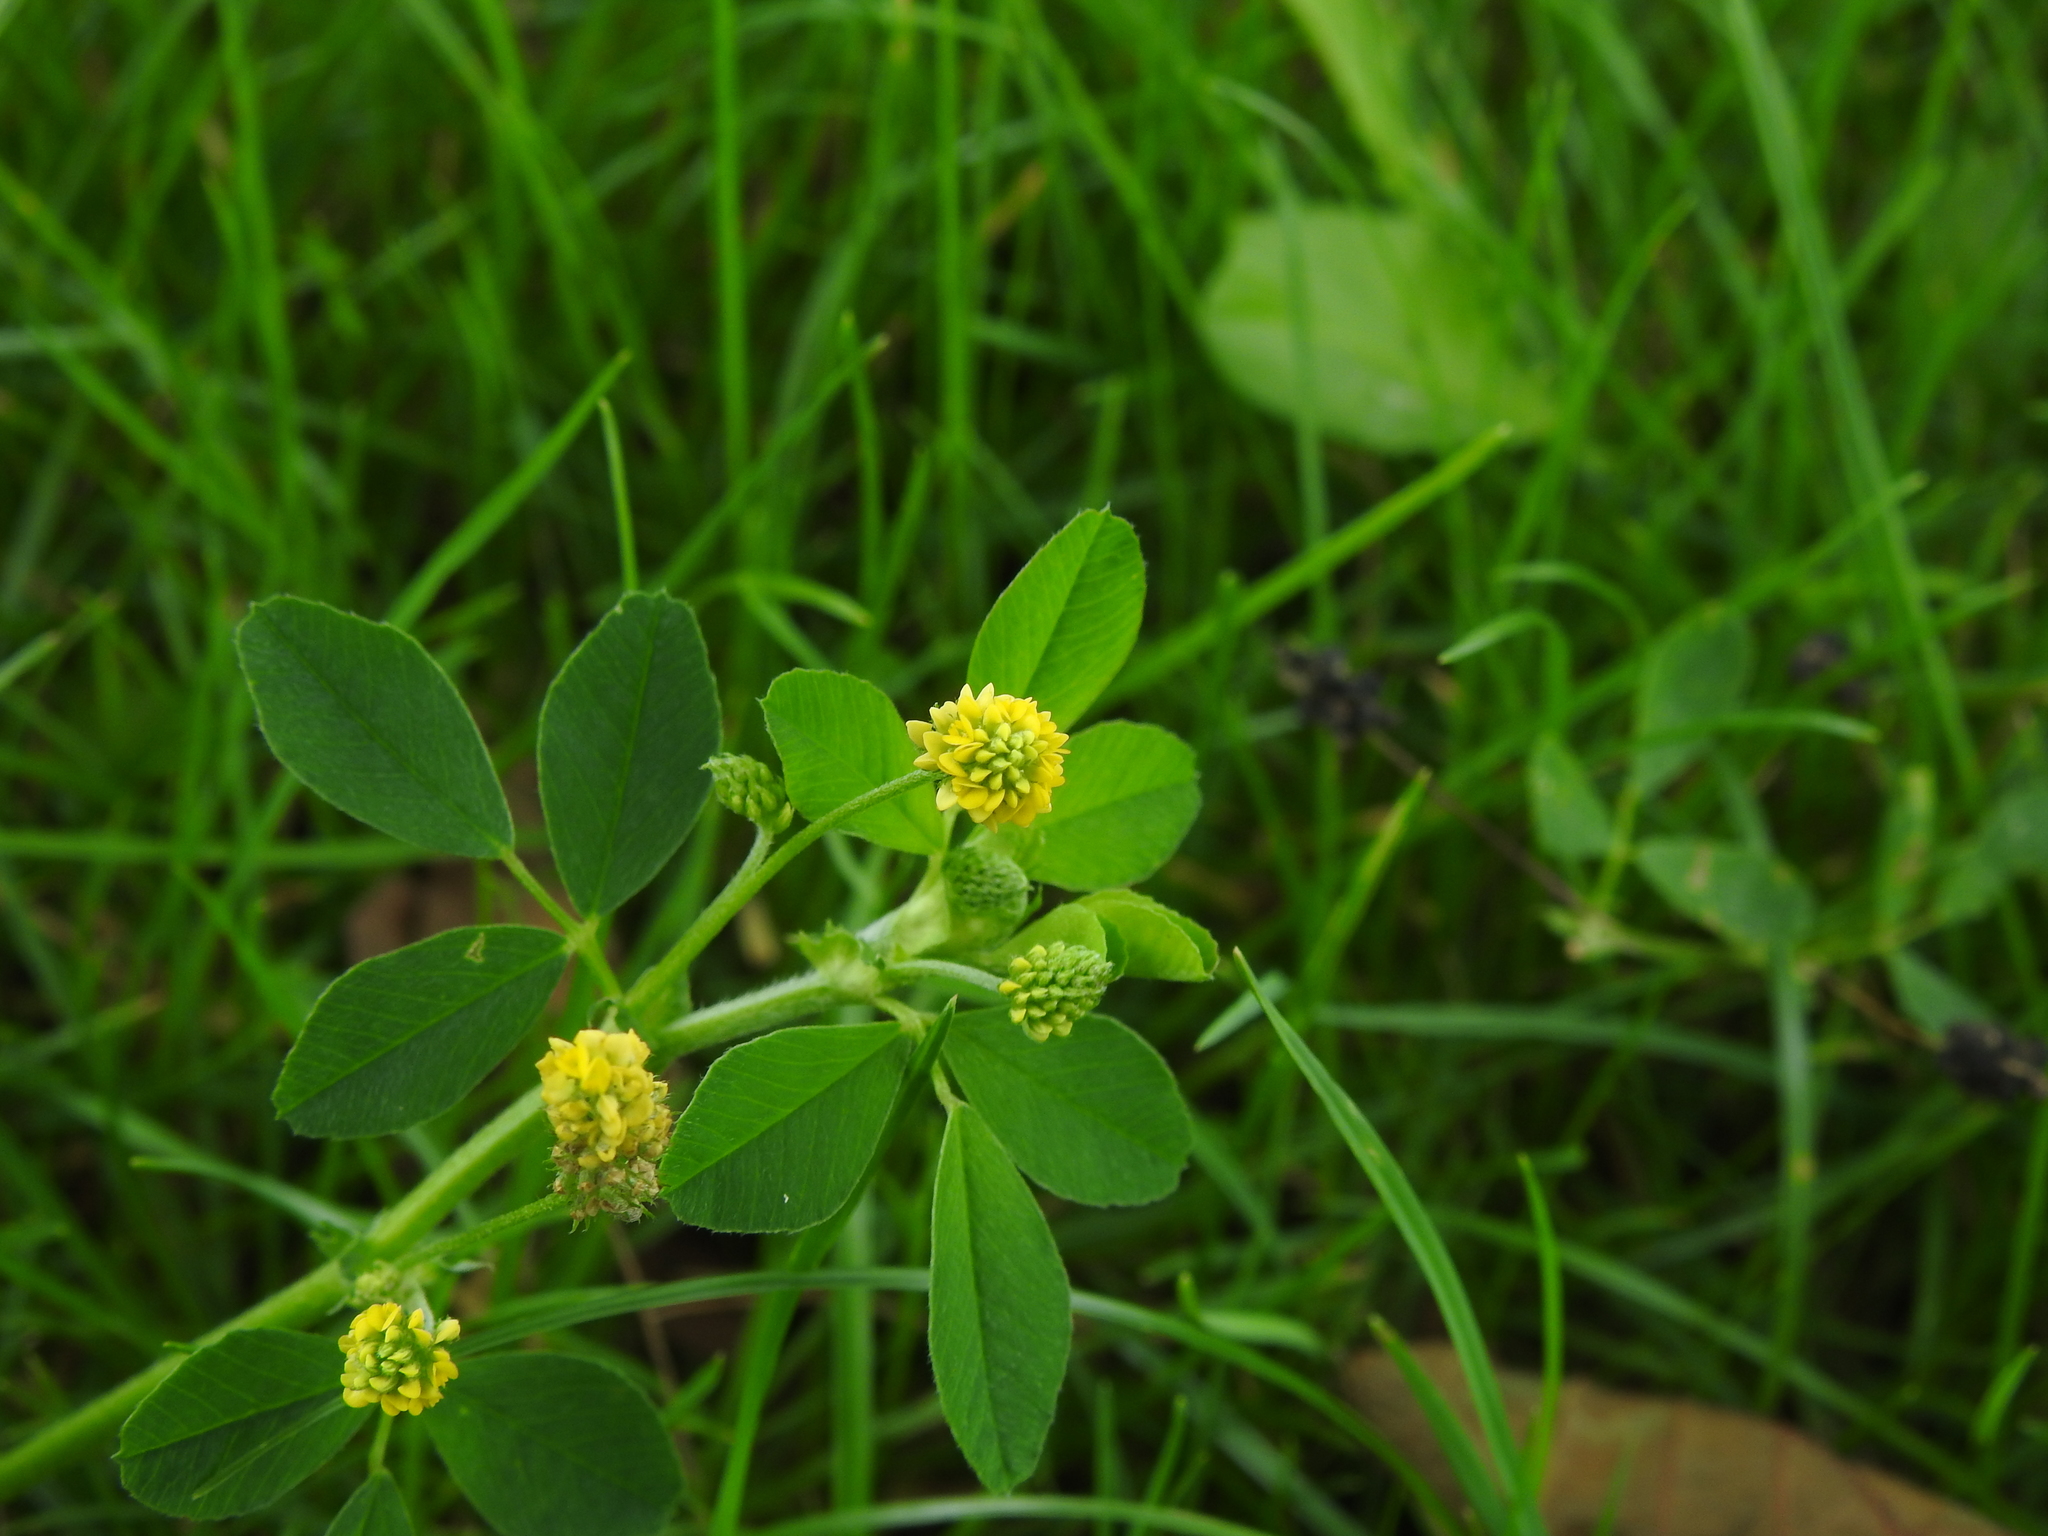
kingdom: Plantae
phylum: Tracheophyta
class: Magnoliopsida
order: Fabales
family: Fabaceae
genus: Medicago
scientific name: Medicago lupulina
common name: Black medick
